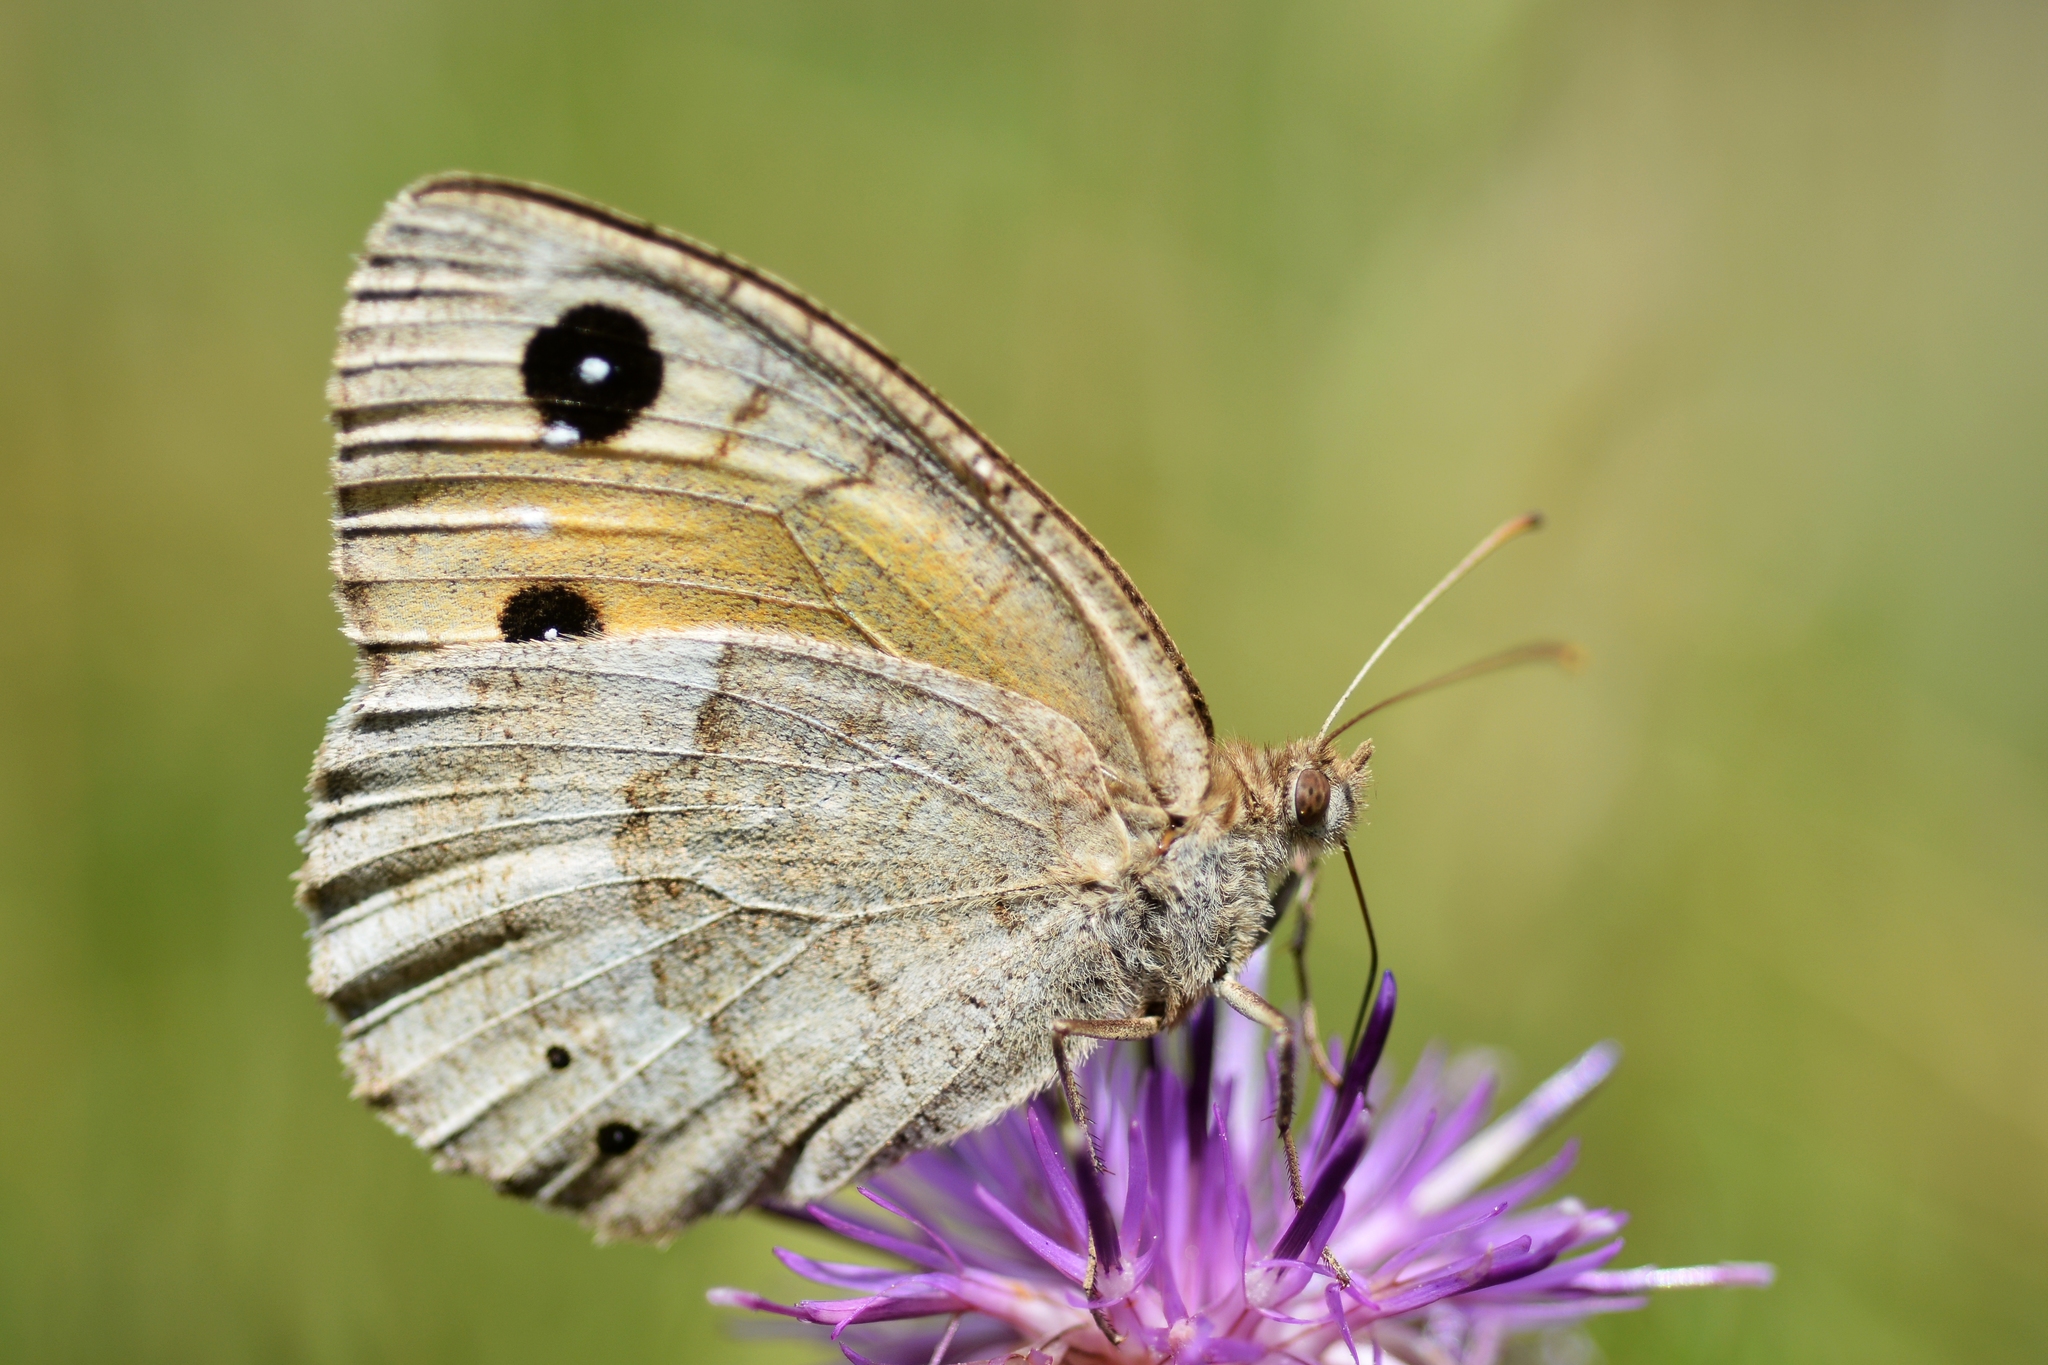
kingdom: Animalia
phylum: Arthropoda
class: Insecta
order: Lepidoptera
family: Nymphalidae
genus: Satyrus
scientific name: Satyrus ferula
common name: Great sooty satyr
